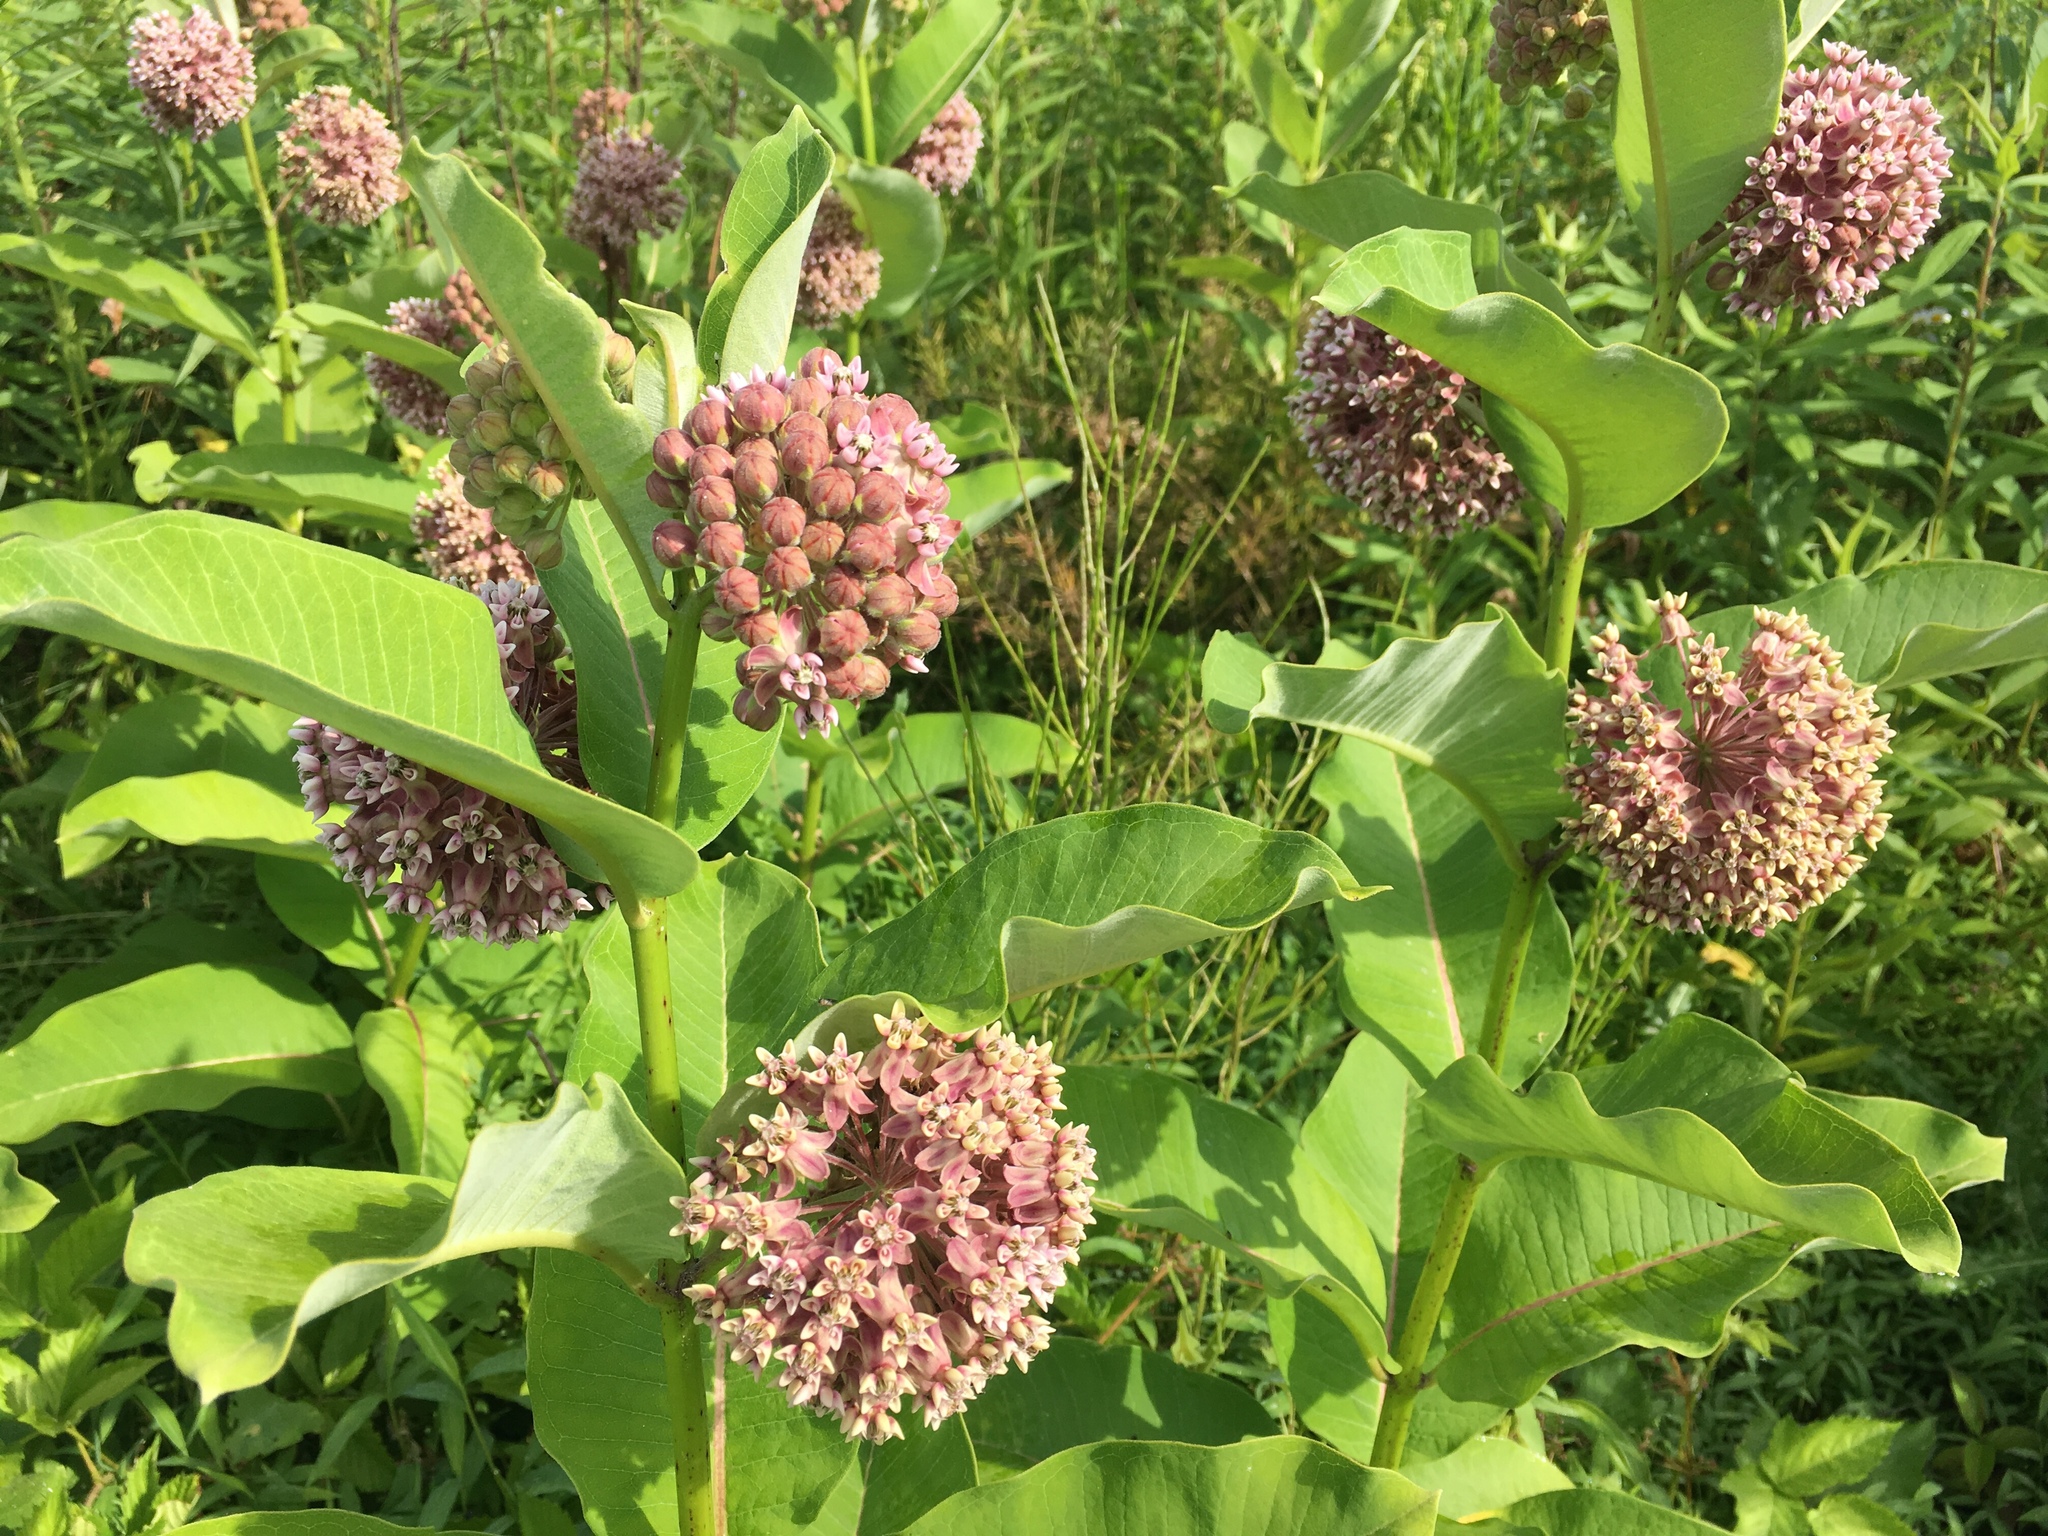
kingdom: Plantae
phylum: Tracheophyta
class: Magnoliopsida
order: Gentianales
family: Apocynaceae
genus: Asclepias
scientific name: Asclepias syriaca
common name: Common milkweed
